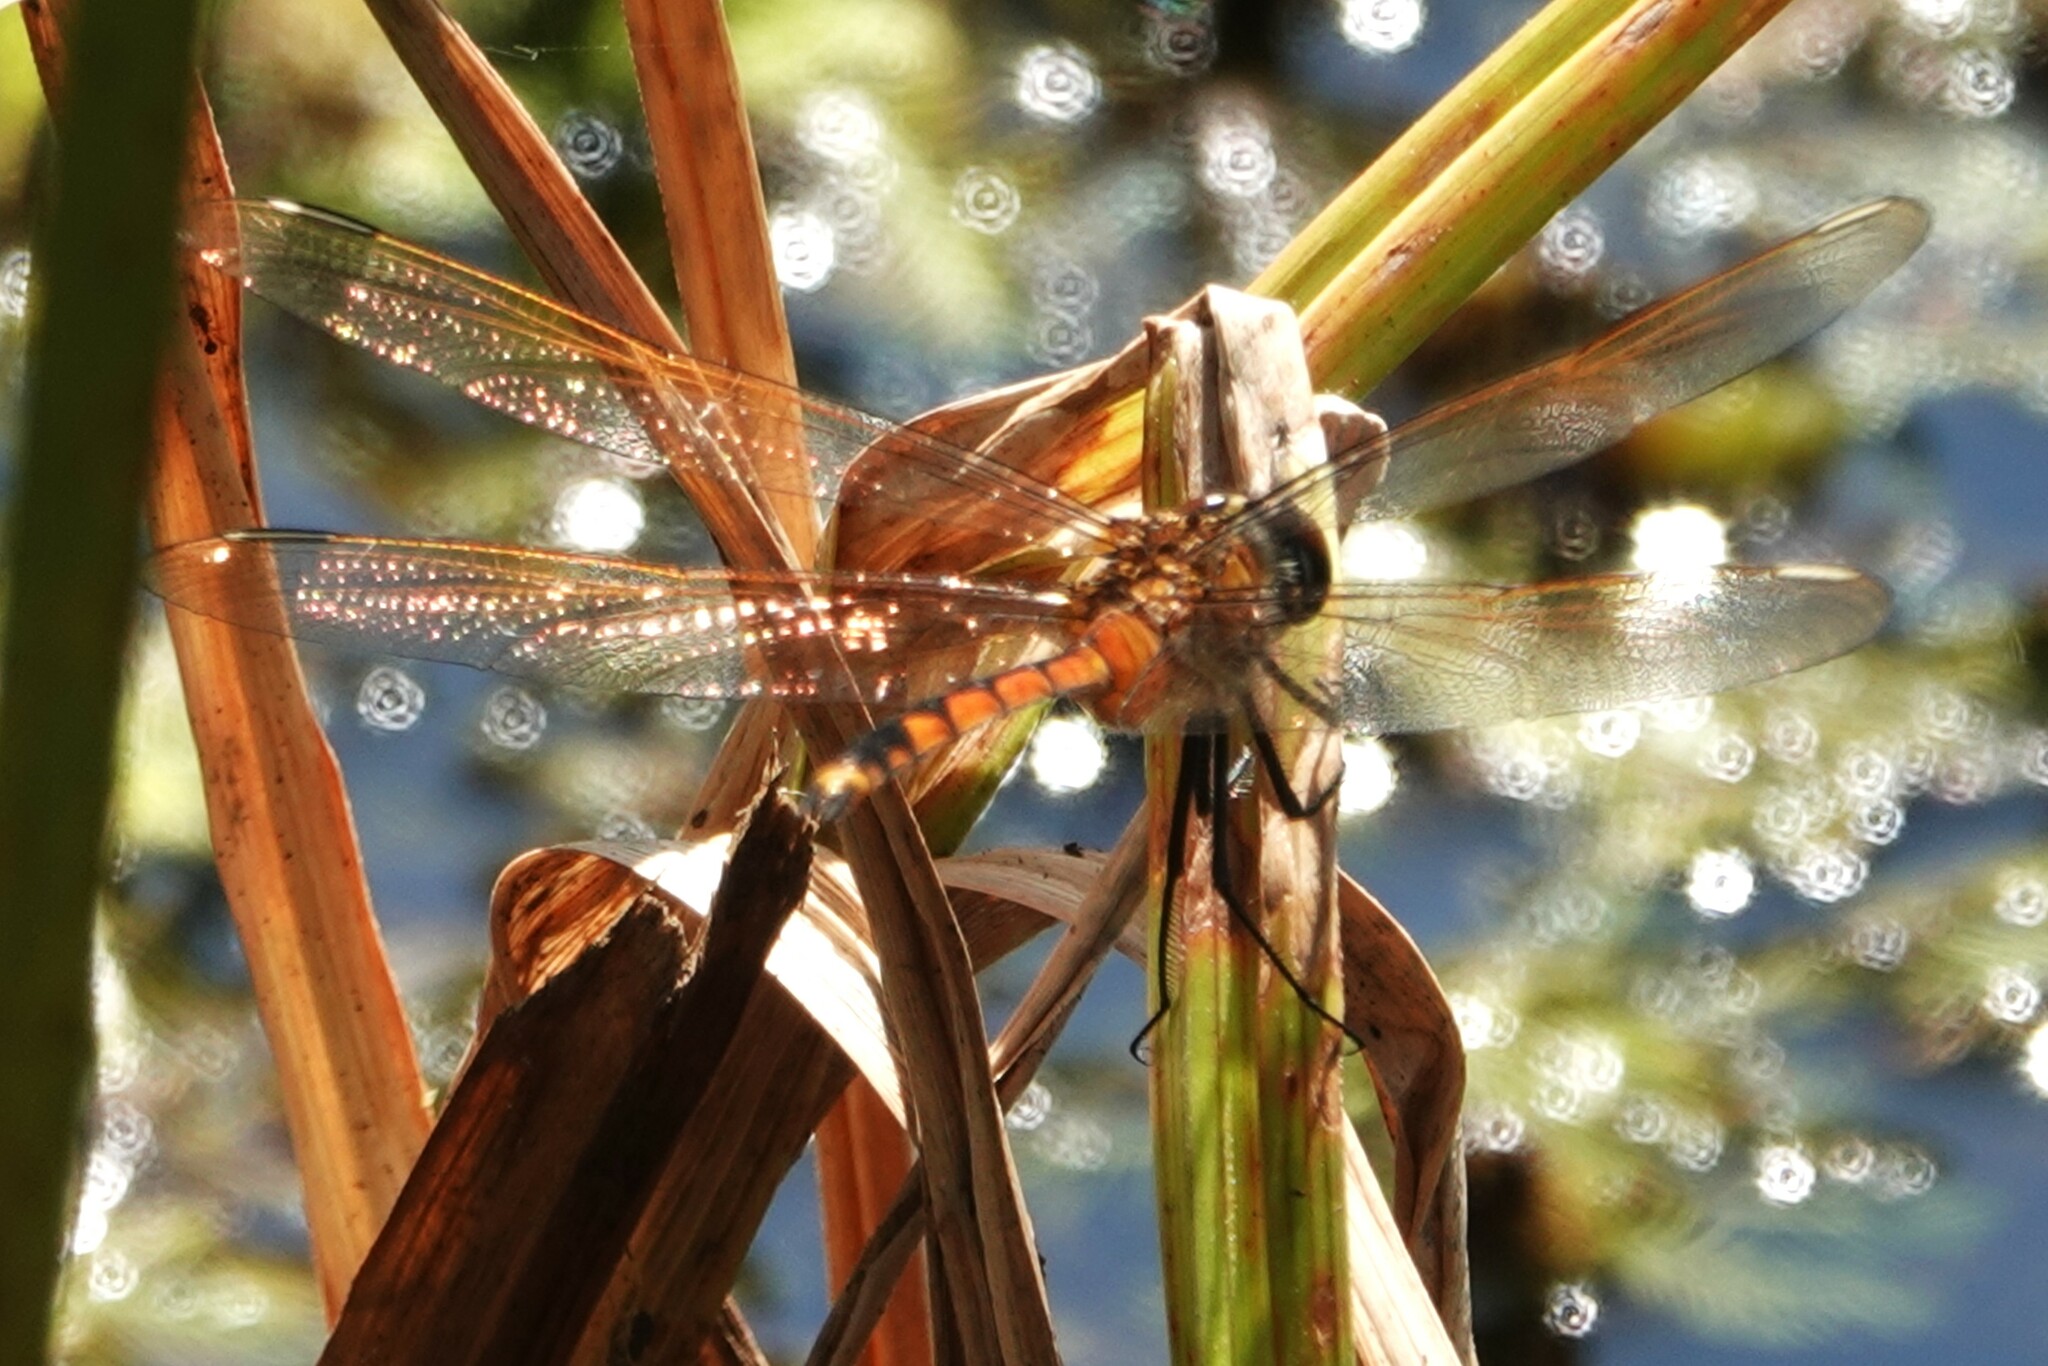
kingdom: Animalia
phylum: Arthropoda
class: Insecta
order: Odonata
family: Libellulidae
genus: Brachymesia
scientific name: Brachymesia gravida
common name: Four-spotted pennant
